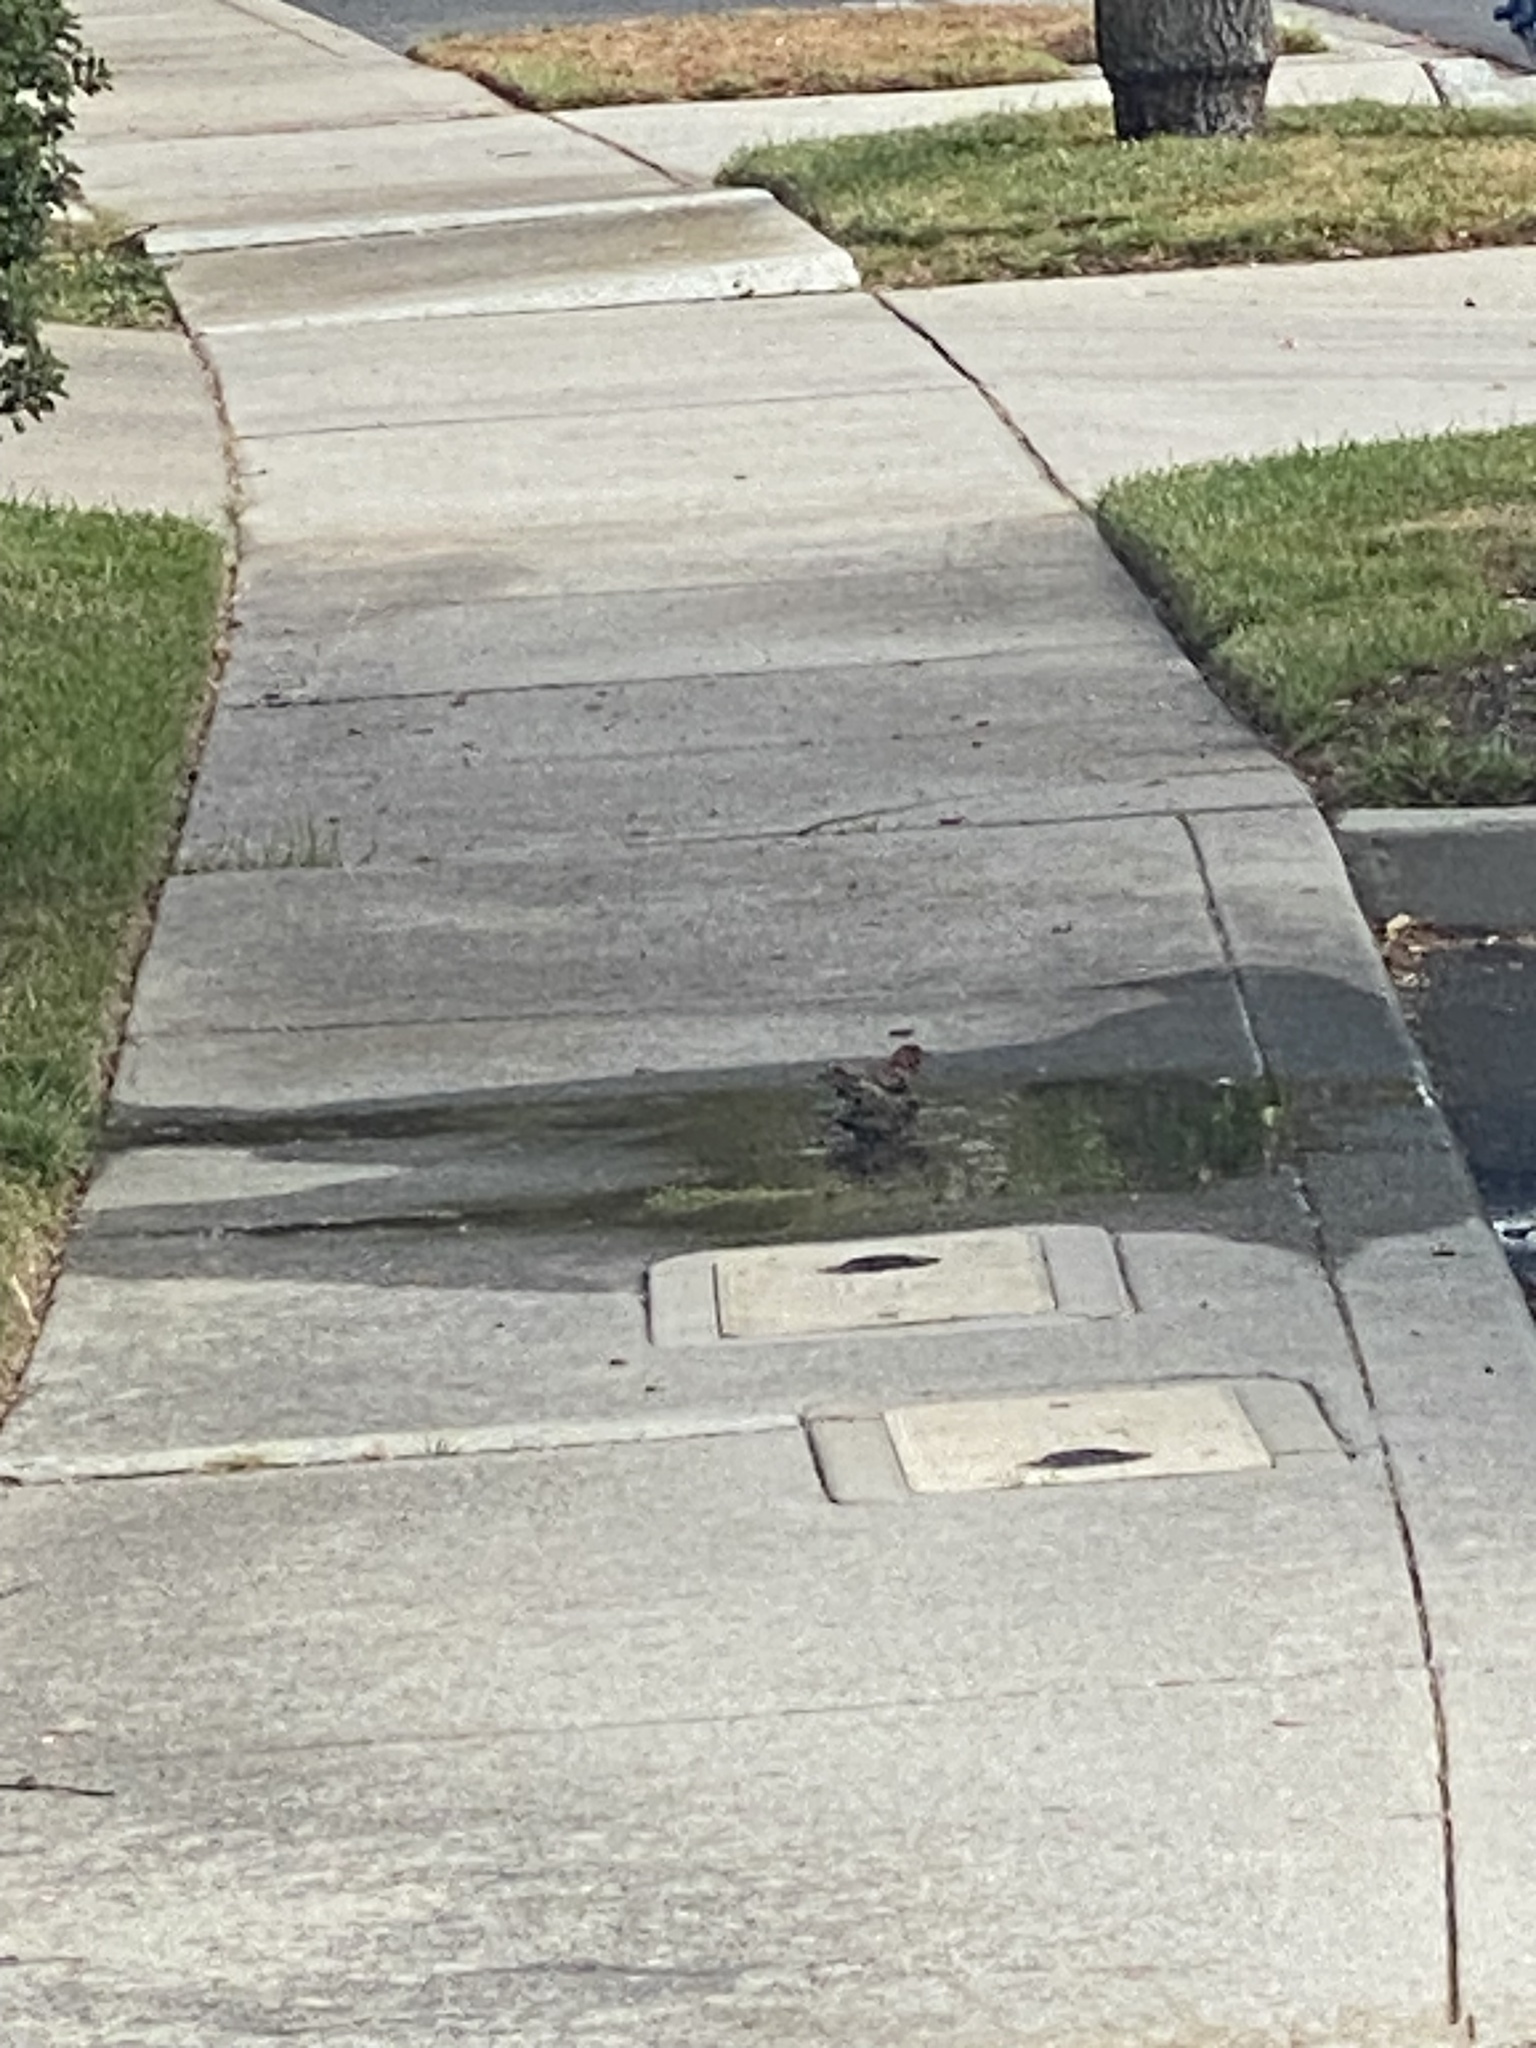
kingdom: Animalia
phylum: Chordata
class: Aves
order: Passeriformes
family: Fringillidae
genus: Haemorhous
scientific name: Haemorhous mexicanus
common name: House finch
